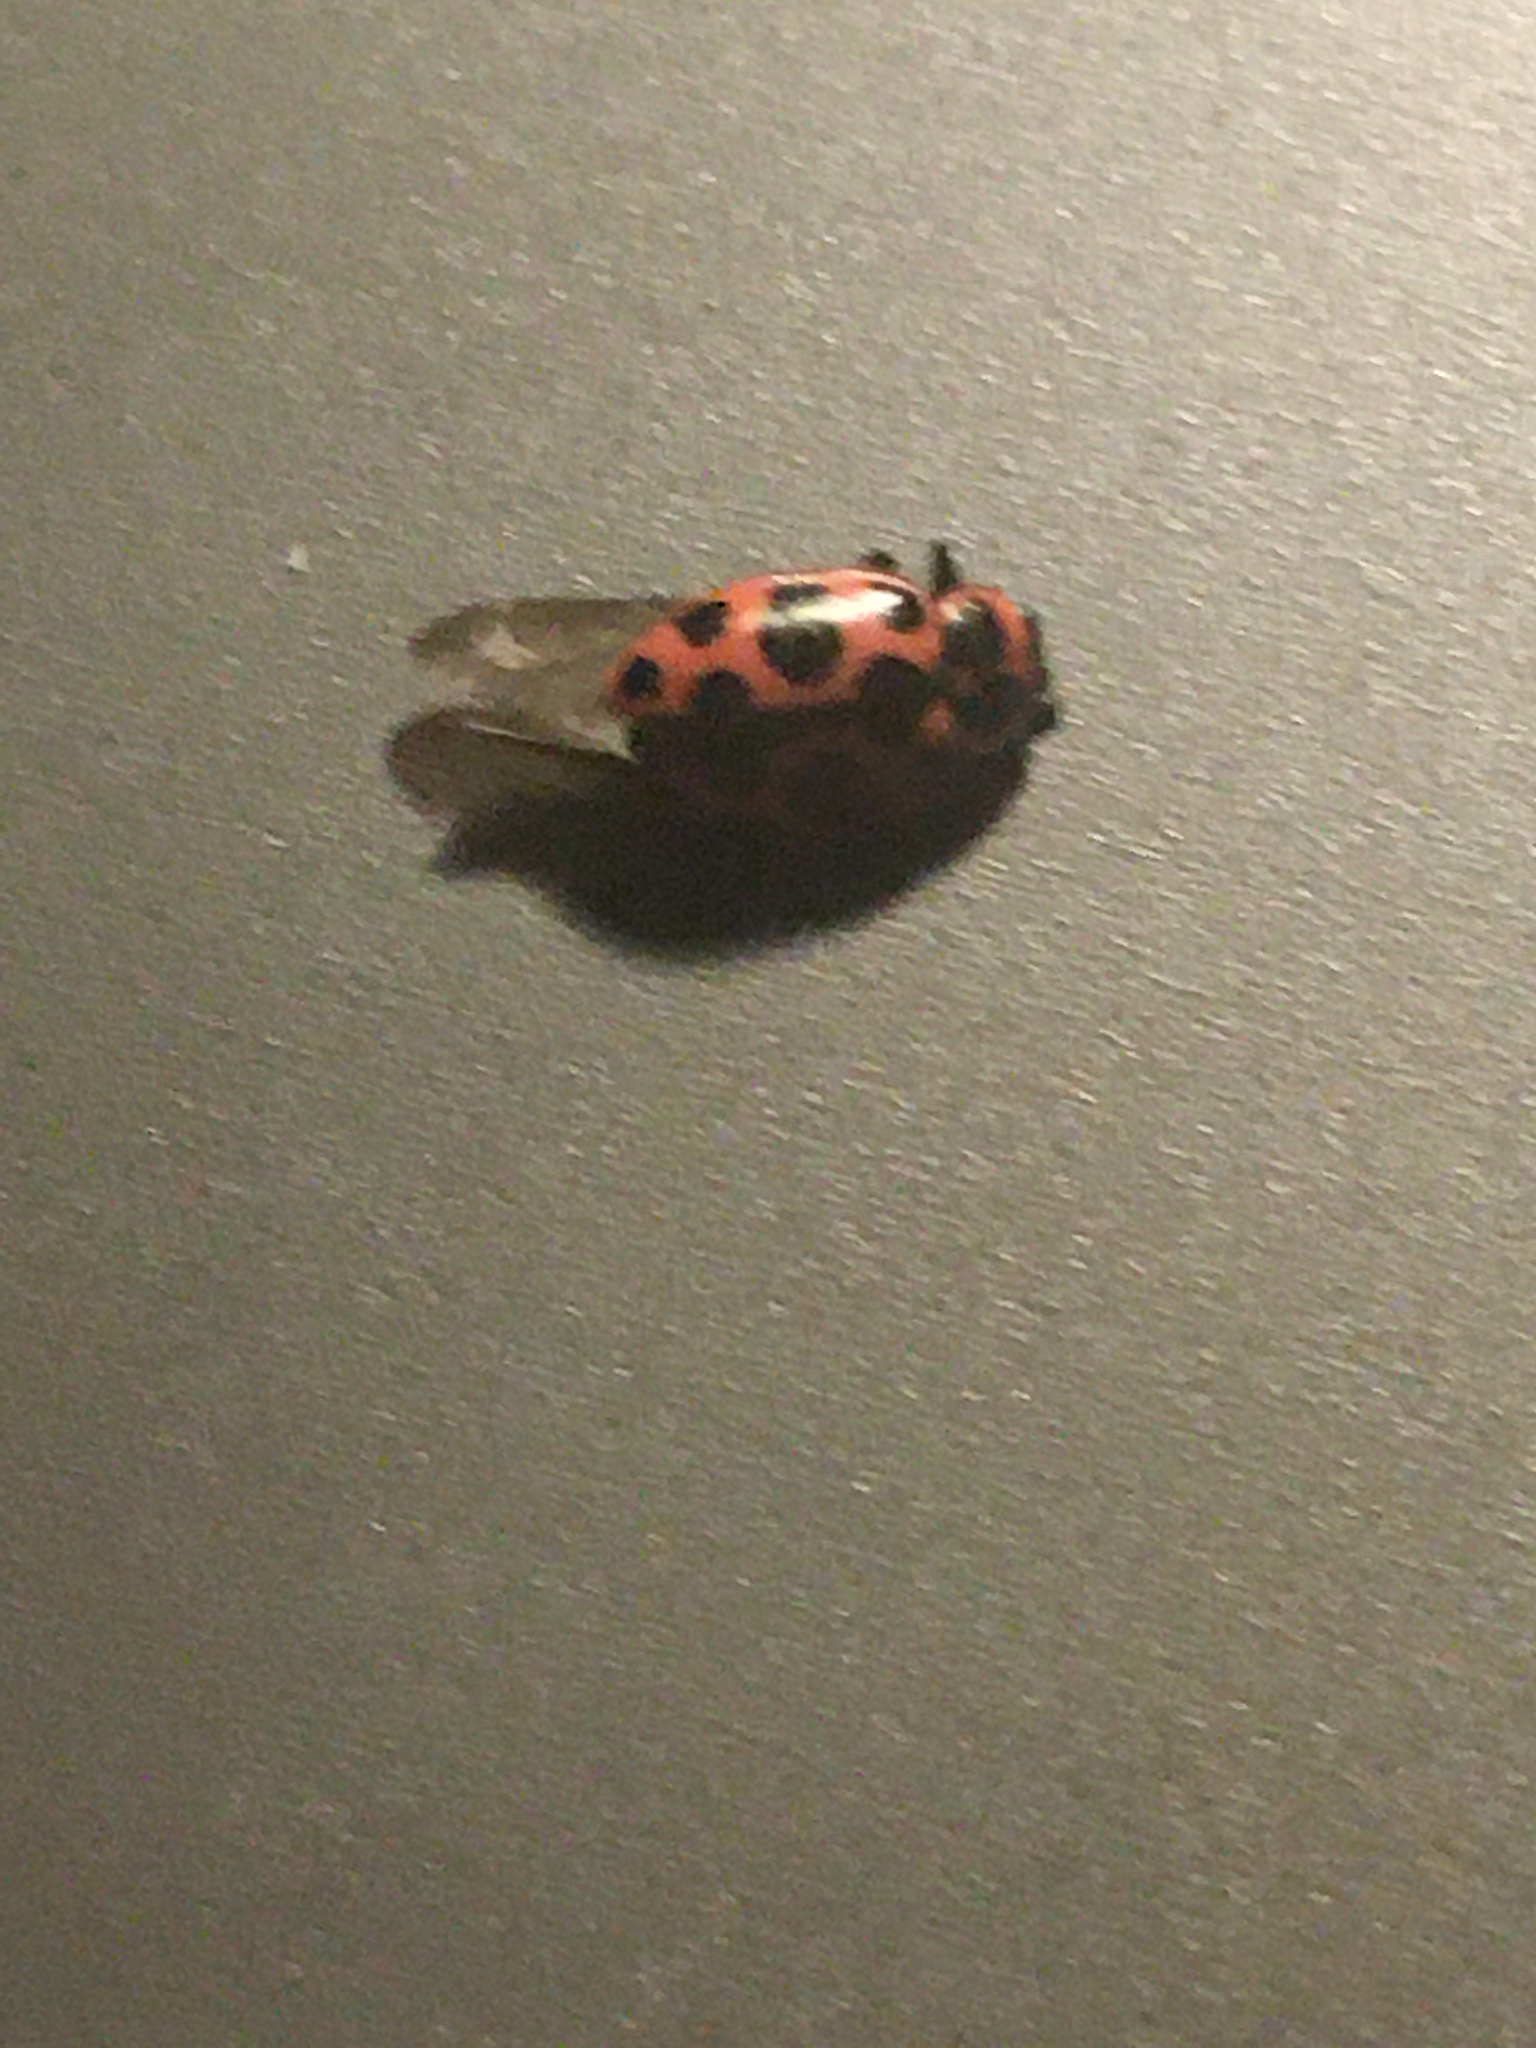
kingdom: Animalia
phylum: Arthropoda
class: Insecta
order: Coleoptera
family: Coccinellidae
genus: Coleomegilla
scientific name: Coleomegilla maculata
